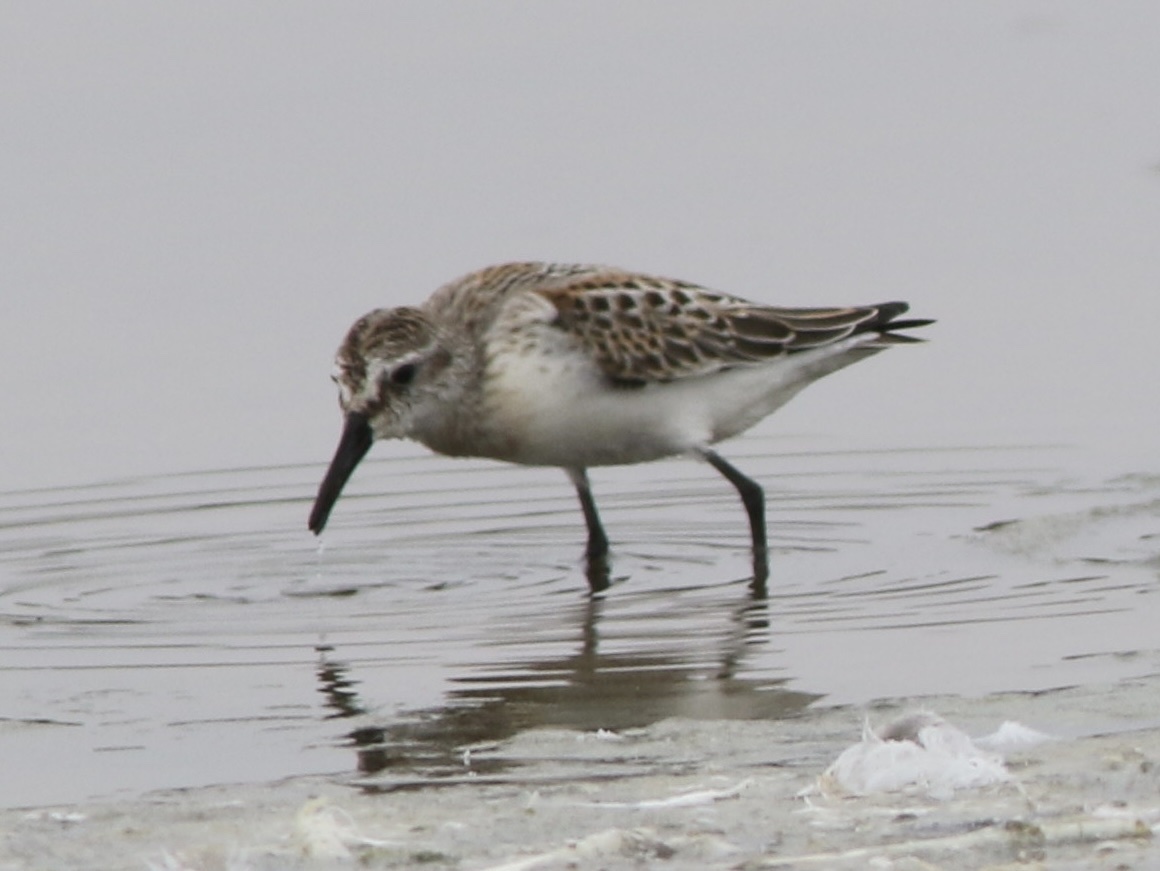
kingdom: Animalia
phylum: Chordata
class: Aves
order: Charadriiformes
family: Scolopacidae
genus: Calidris
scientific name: Calidris mauri
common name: Western sandpiper
